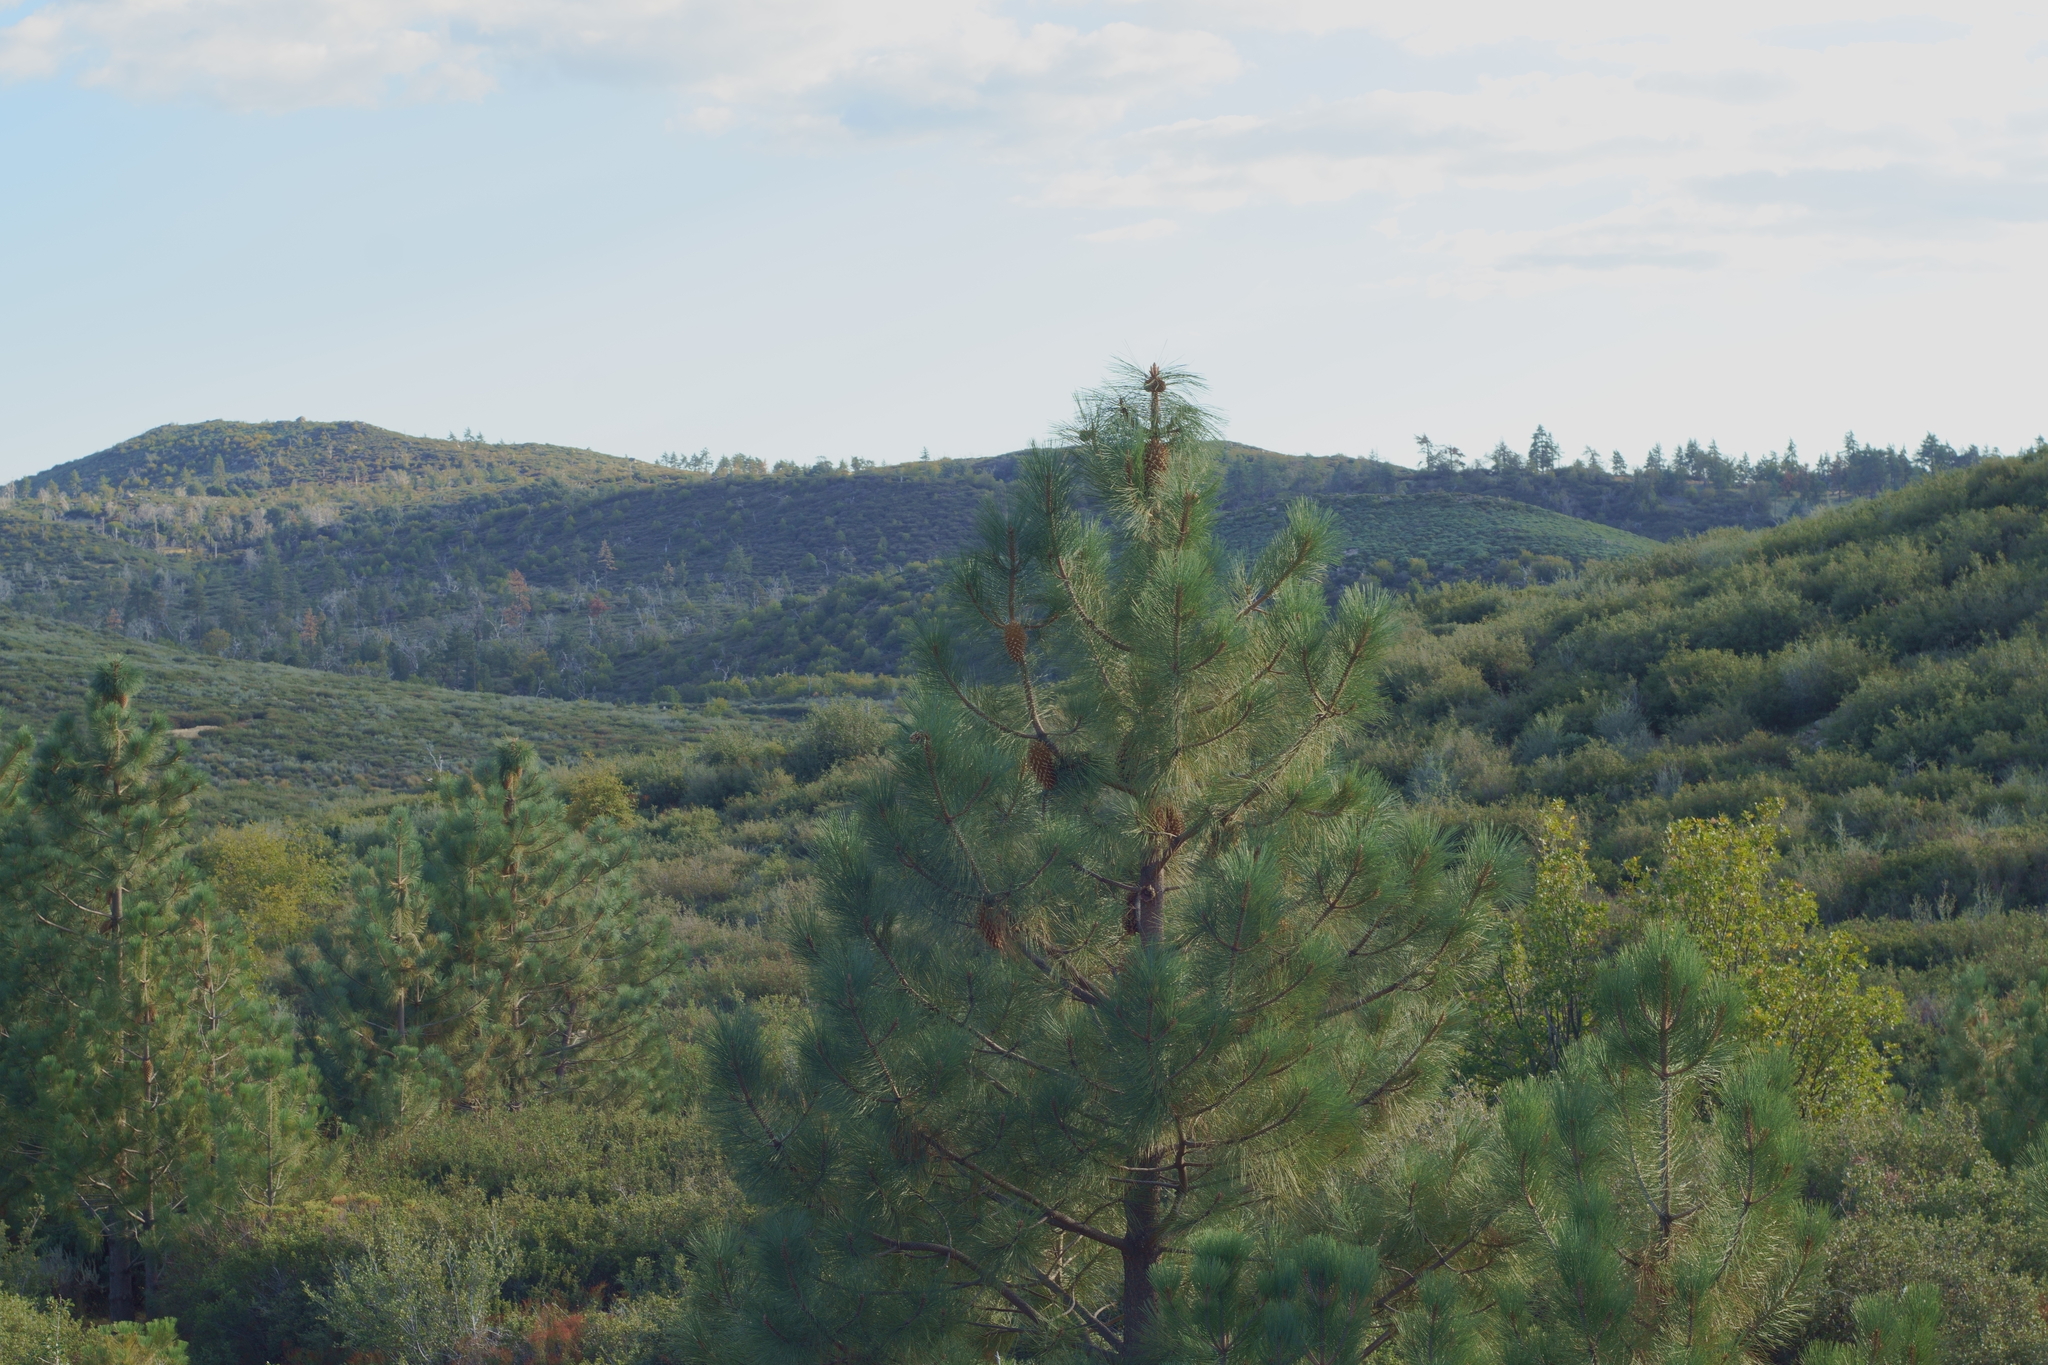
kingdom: Plantae
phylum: Tracheophyta
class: Pinopsida
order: Pinales
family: Pinaceae
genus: Pinus
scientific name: Pinus coulteri
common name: Coulter pine
